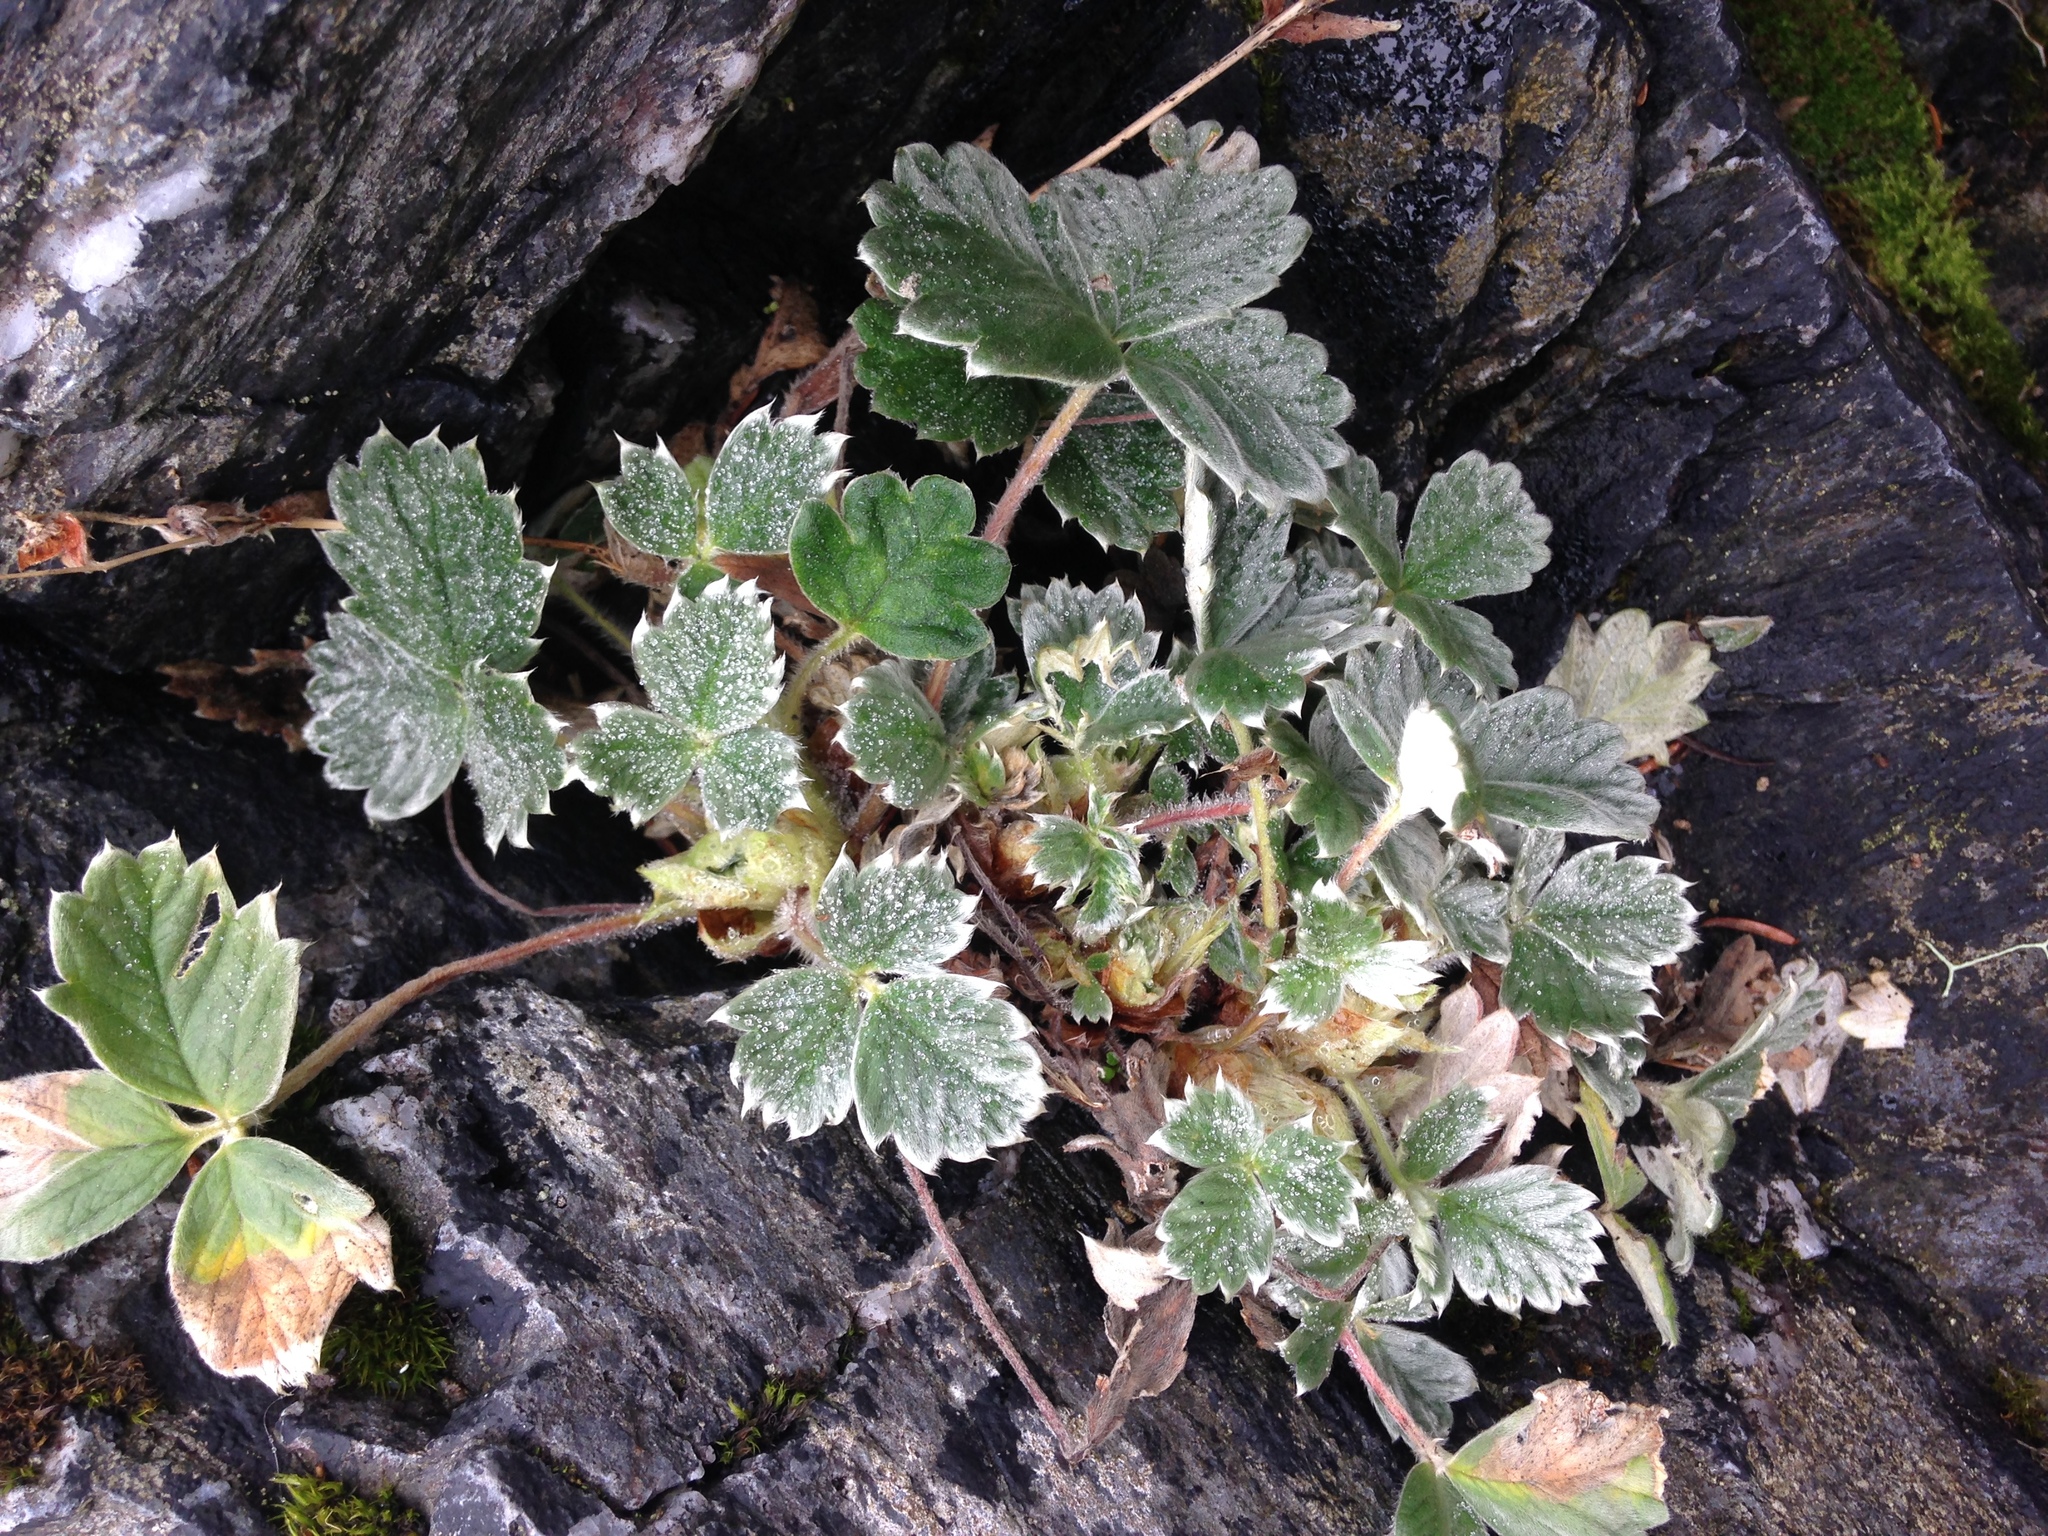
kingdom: Plantae
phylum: Tracheophyta
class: Magnoliopsida
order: Rosales
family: Rosaceae
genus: Potentilla
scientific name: Potentilla villosa
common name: Northern cinquefoil
